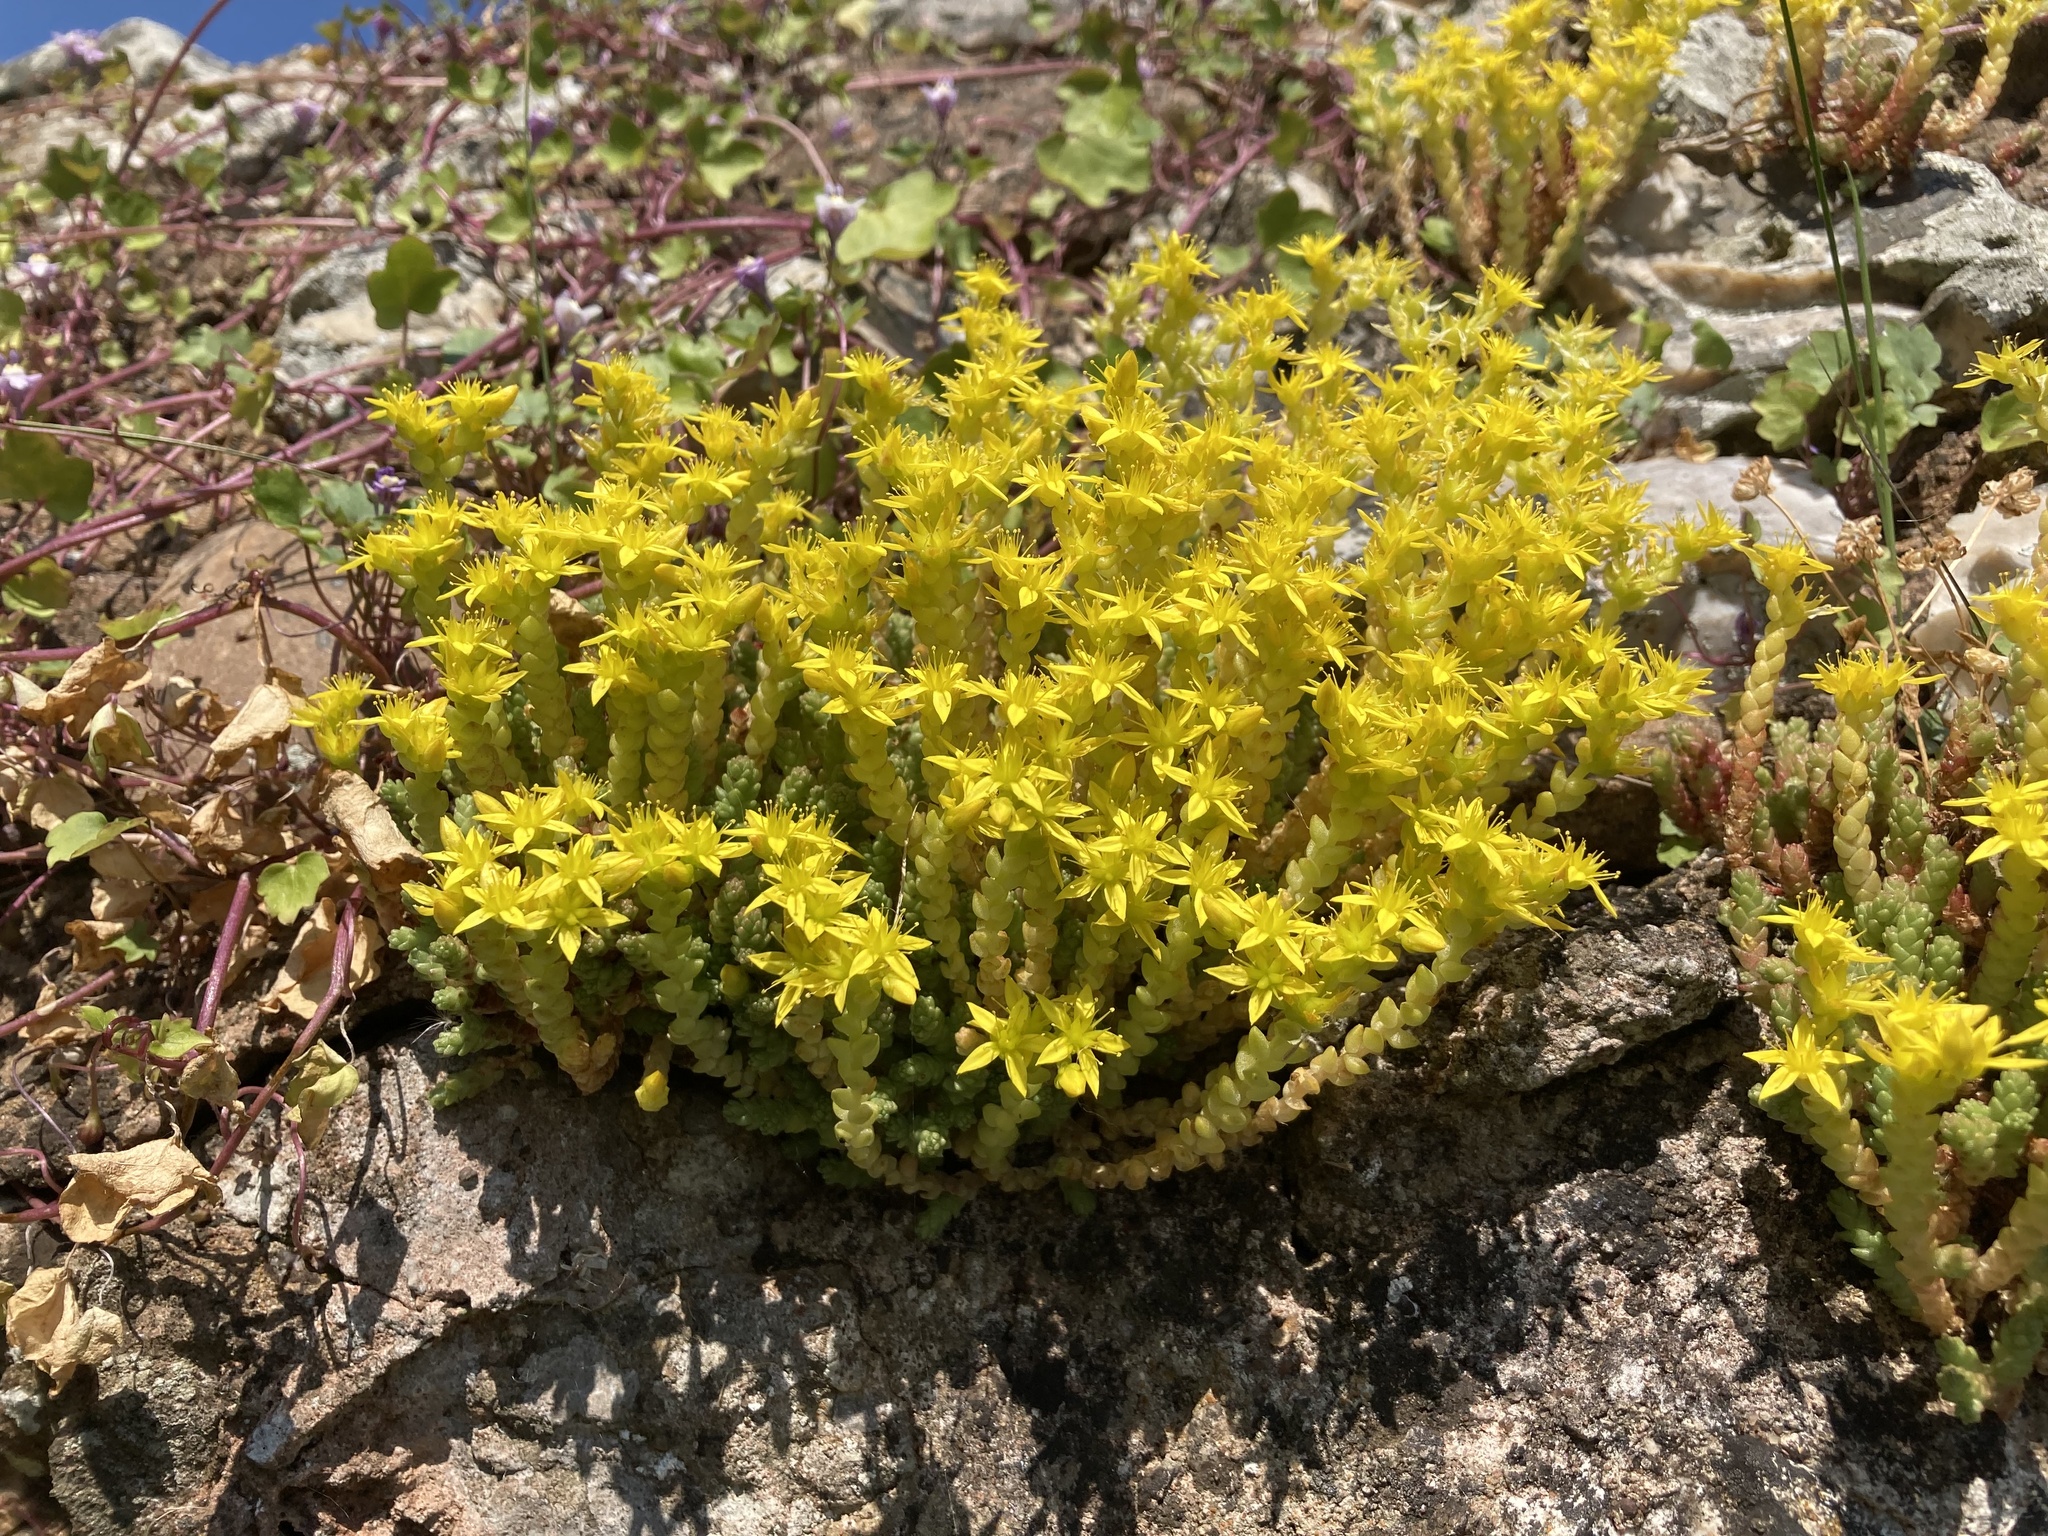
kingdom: Plantae
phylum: Tracheophyta
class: Magnoliopsida
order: Saxifragales
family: Crassulaceae
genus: Sedum
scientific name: Sedum acre
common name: Biting stonecrop
